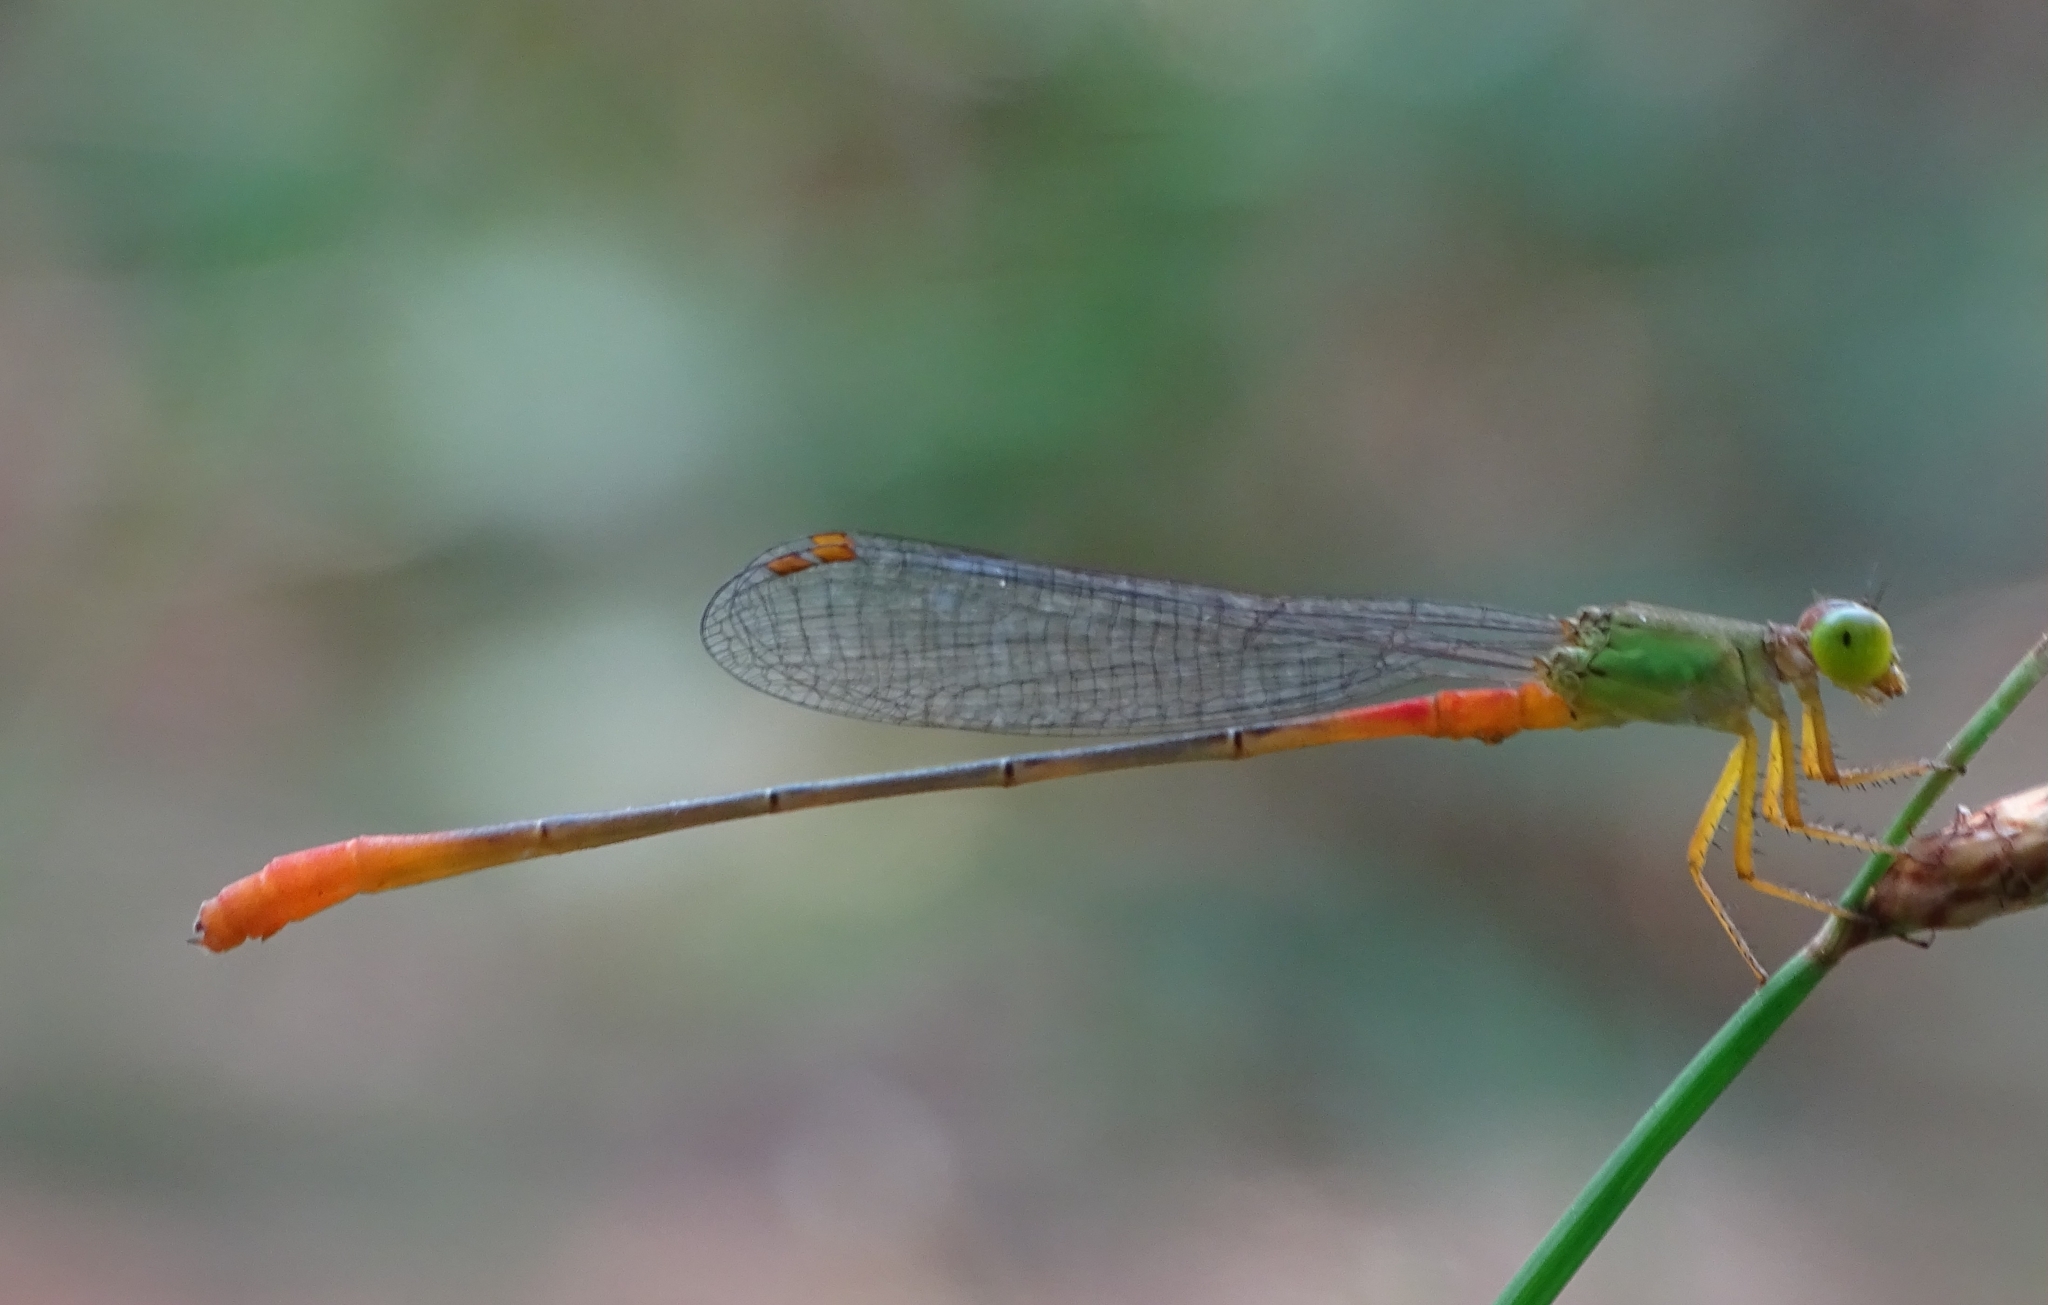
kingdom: Animalia
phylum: Arthropoda
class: Insecta
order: Odonata
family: Coenagrionidae
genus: Ceriagrion
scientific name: Ceriagrion cerinorubellum
